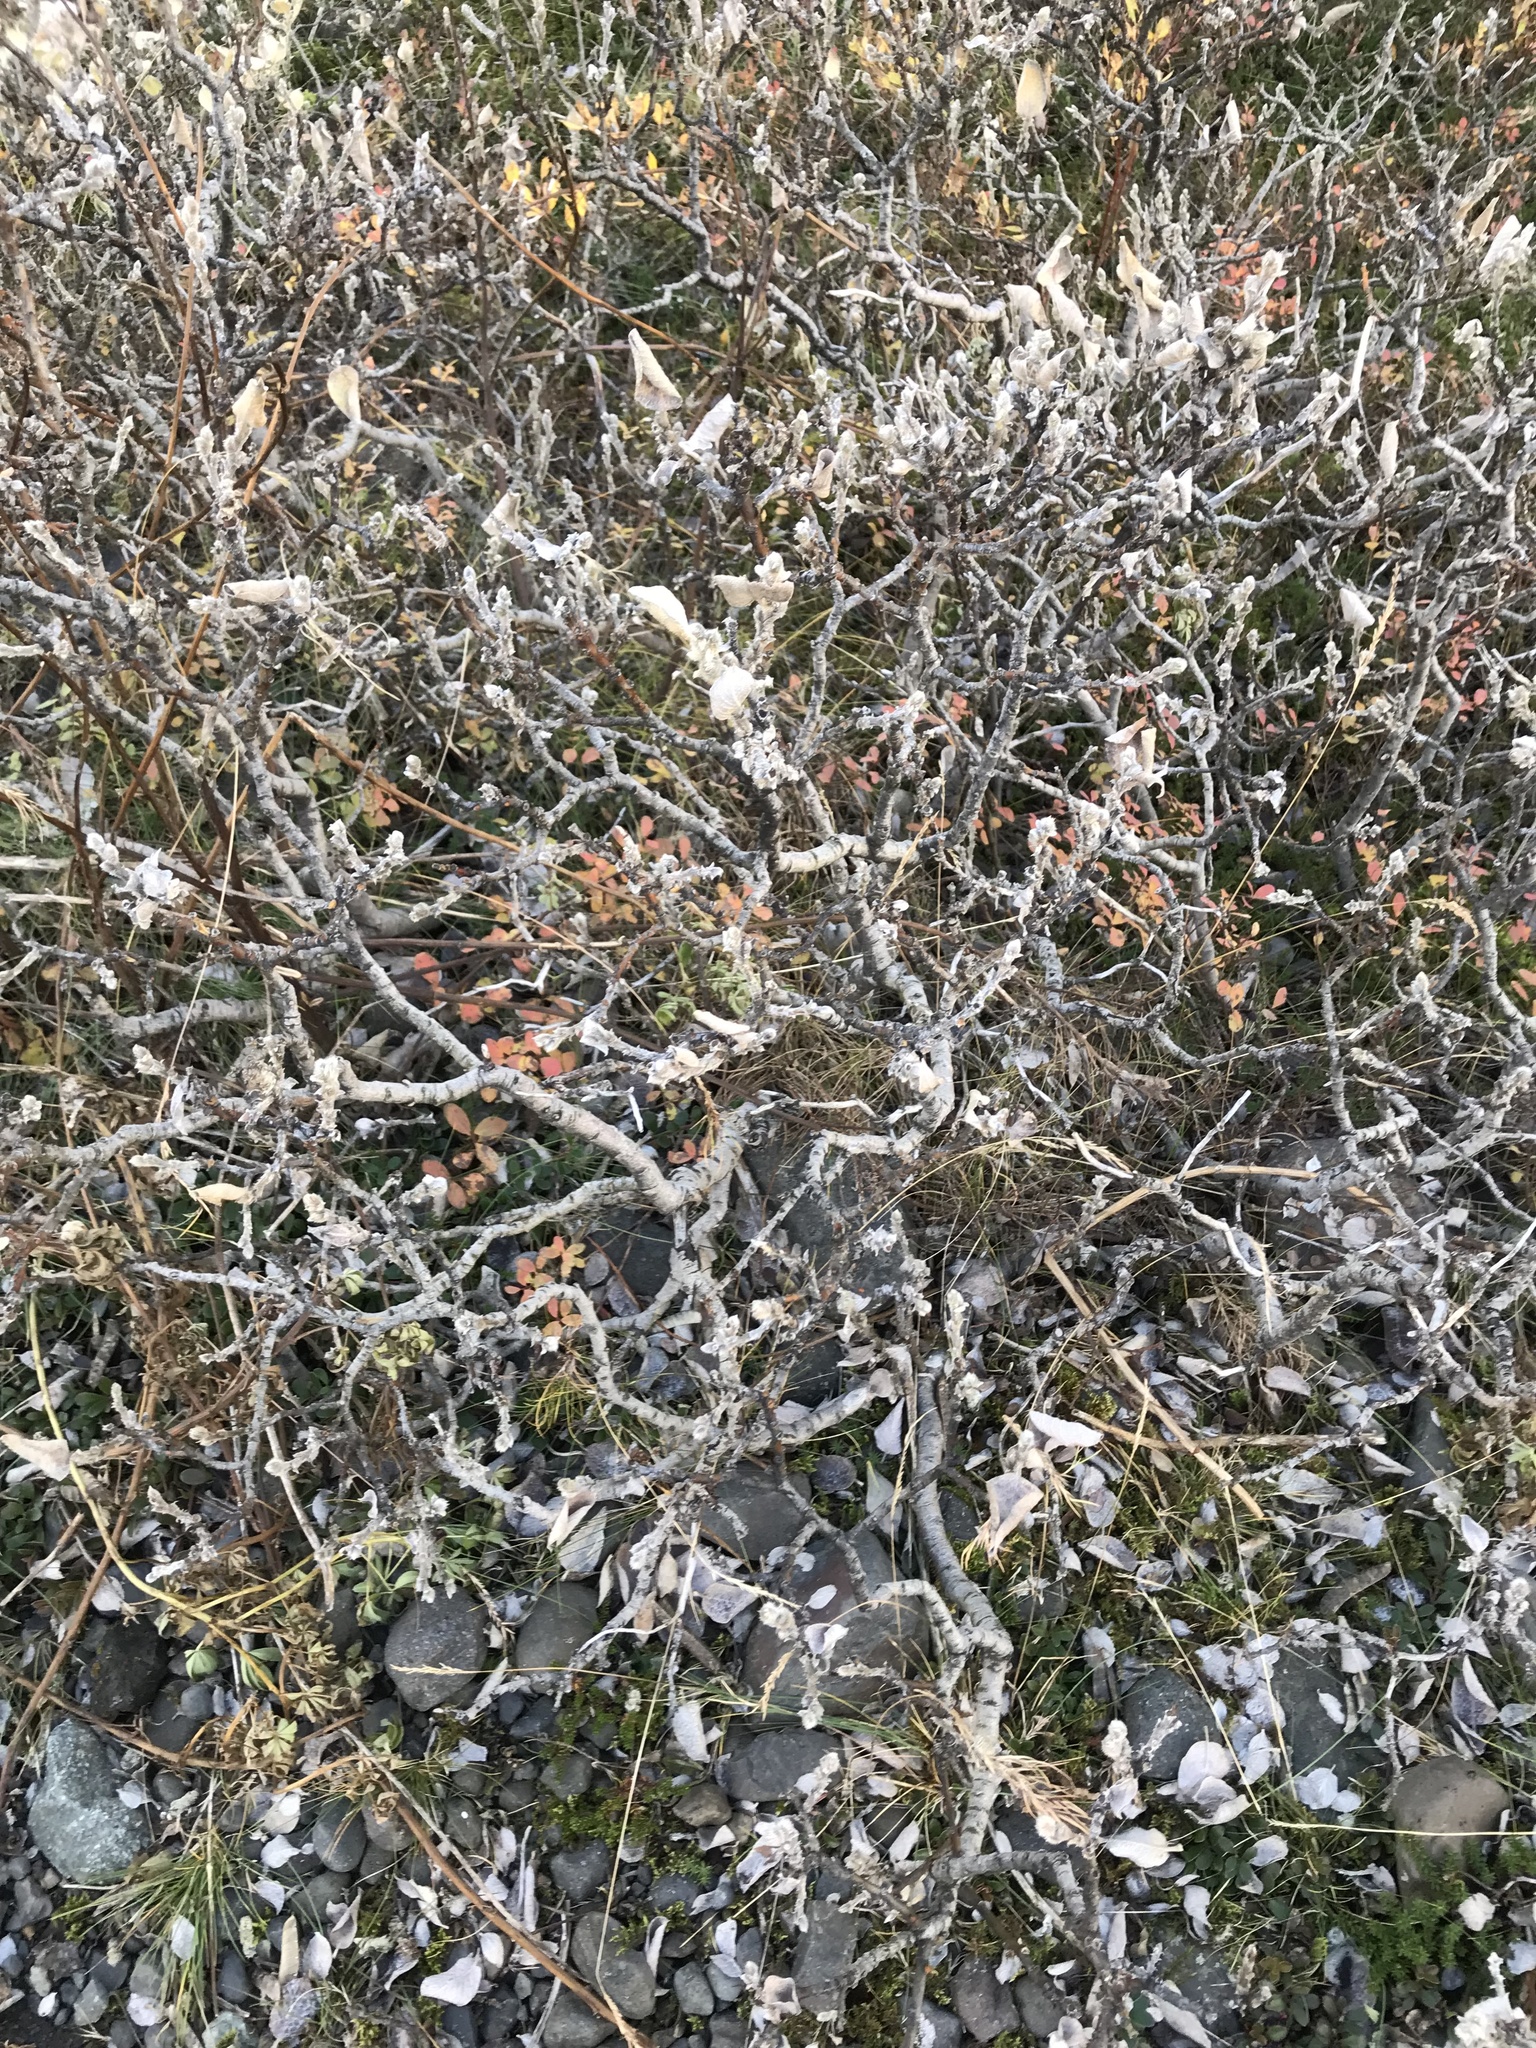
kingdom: Plantae
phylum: Tracheophyta
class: Magnoliopsida
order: Malpighiales
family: Salicaceae
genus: Salix
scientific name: Salix lanata
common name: Woolly willow
